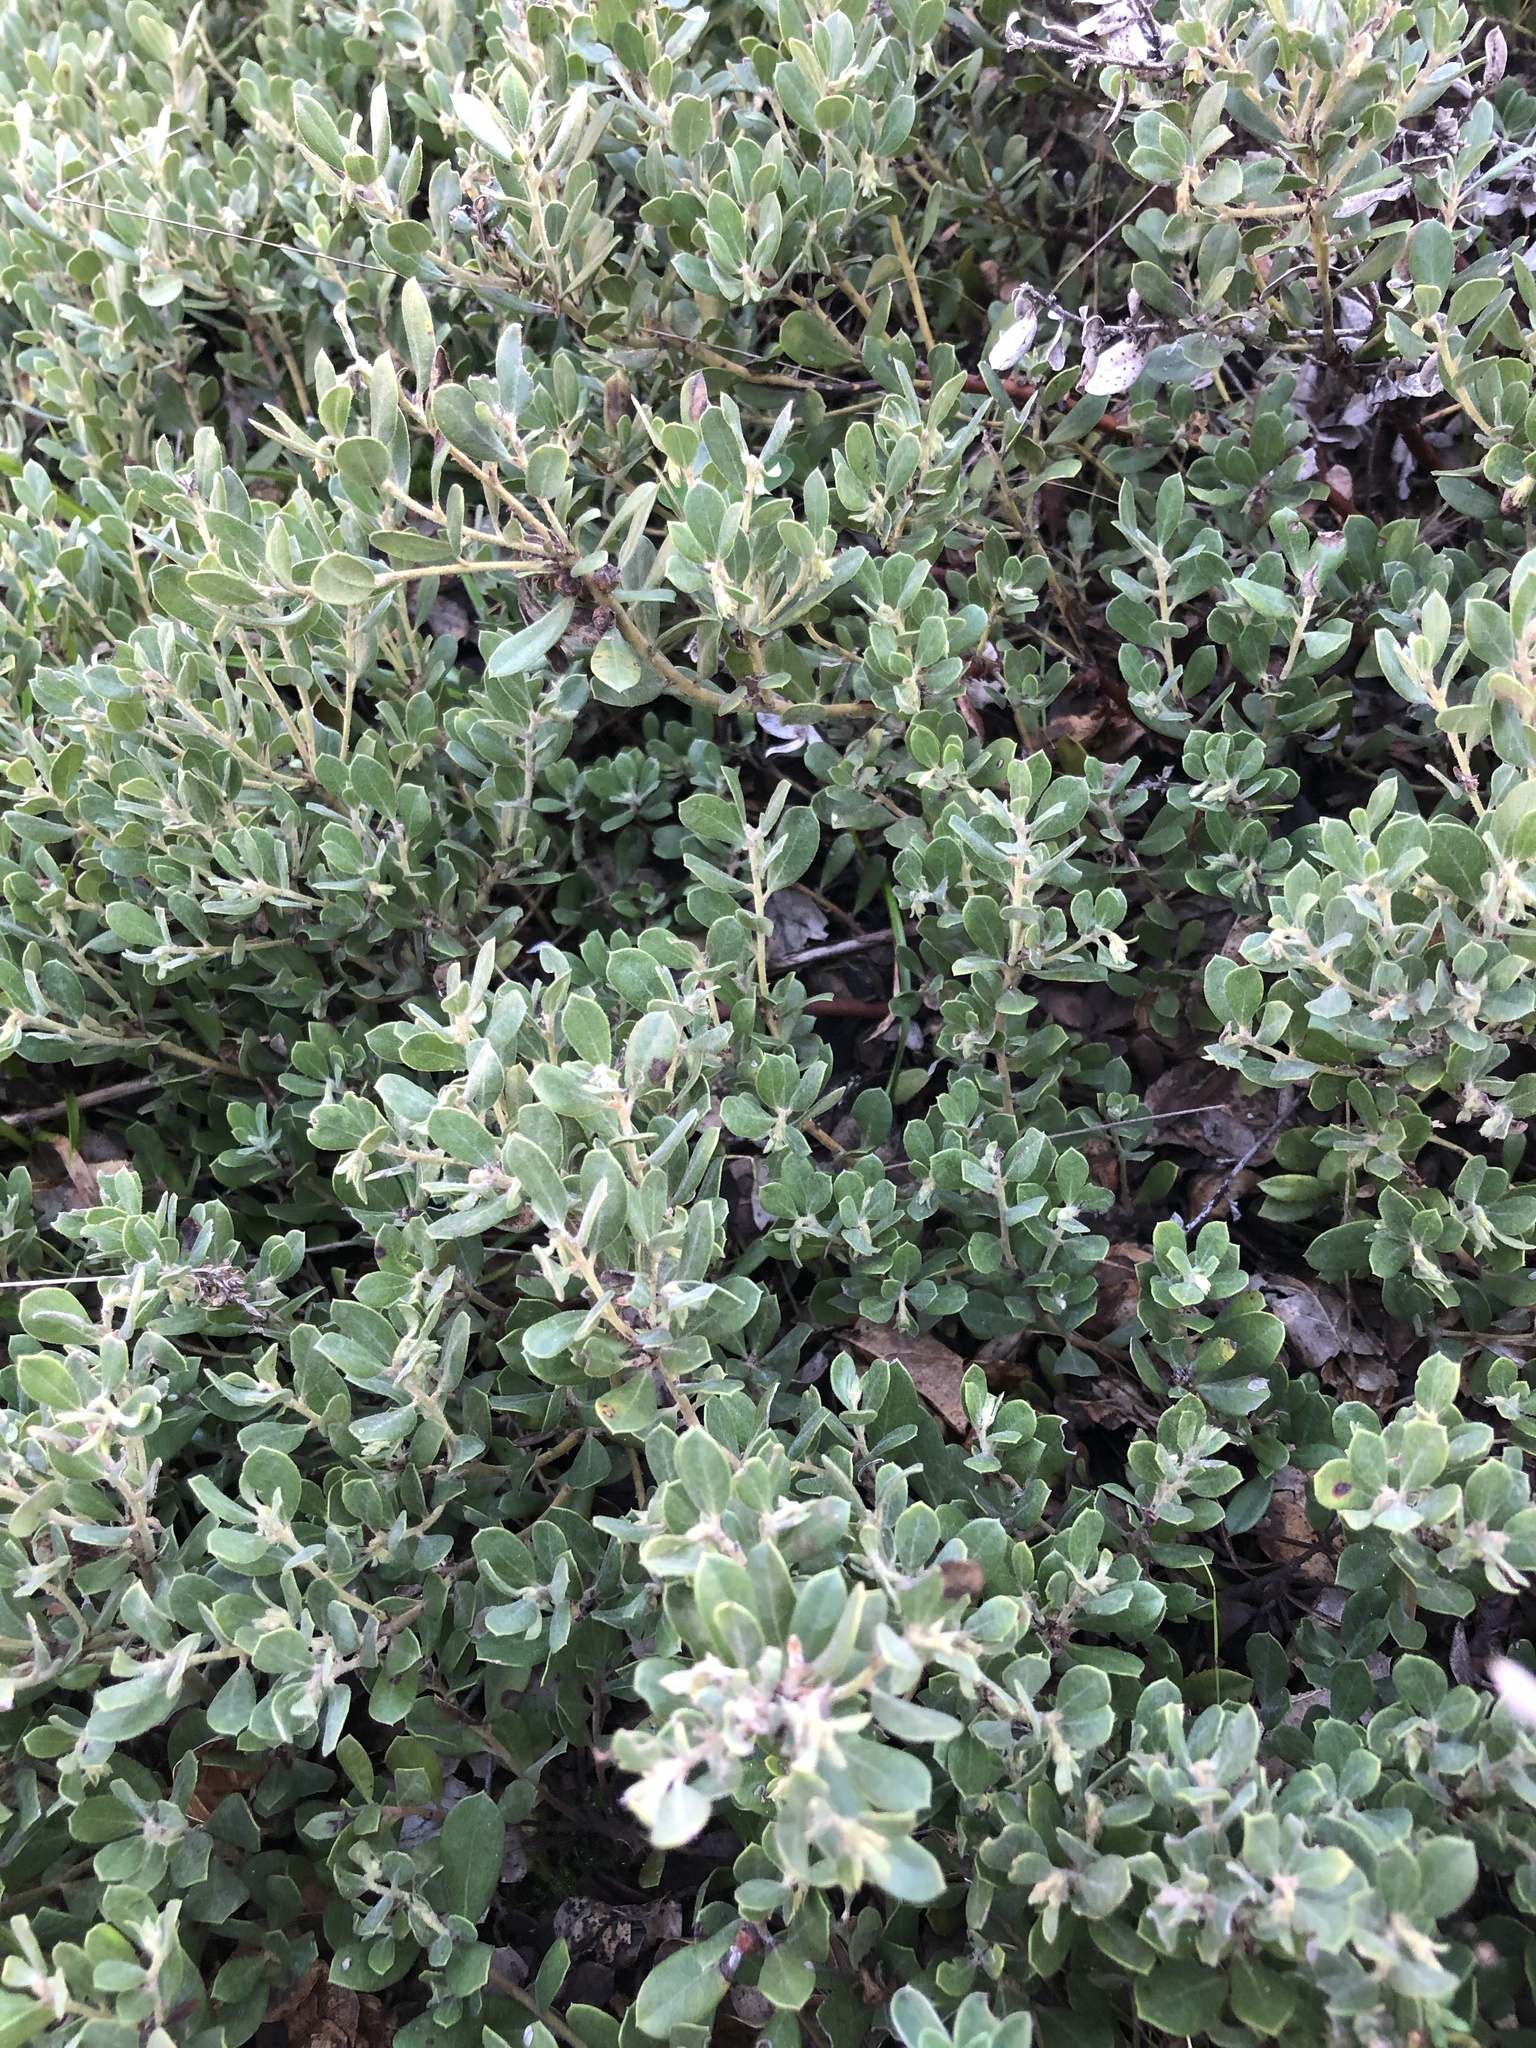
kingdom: Plantae
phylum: Tracheophyta
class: Magnoliopsida
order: Ericales
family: Ericaceae
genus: Arctostaphylos
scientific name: Arctostaphylos pumila
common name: Sandmat manzanita
